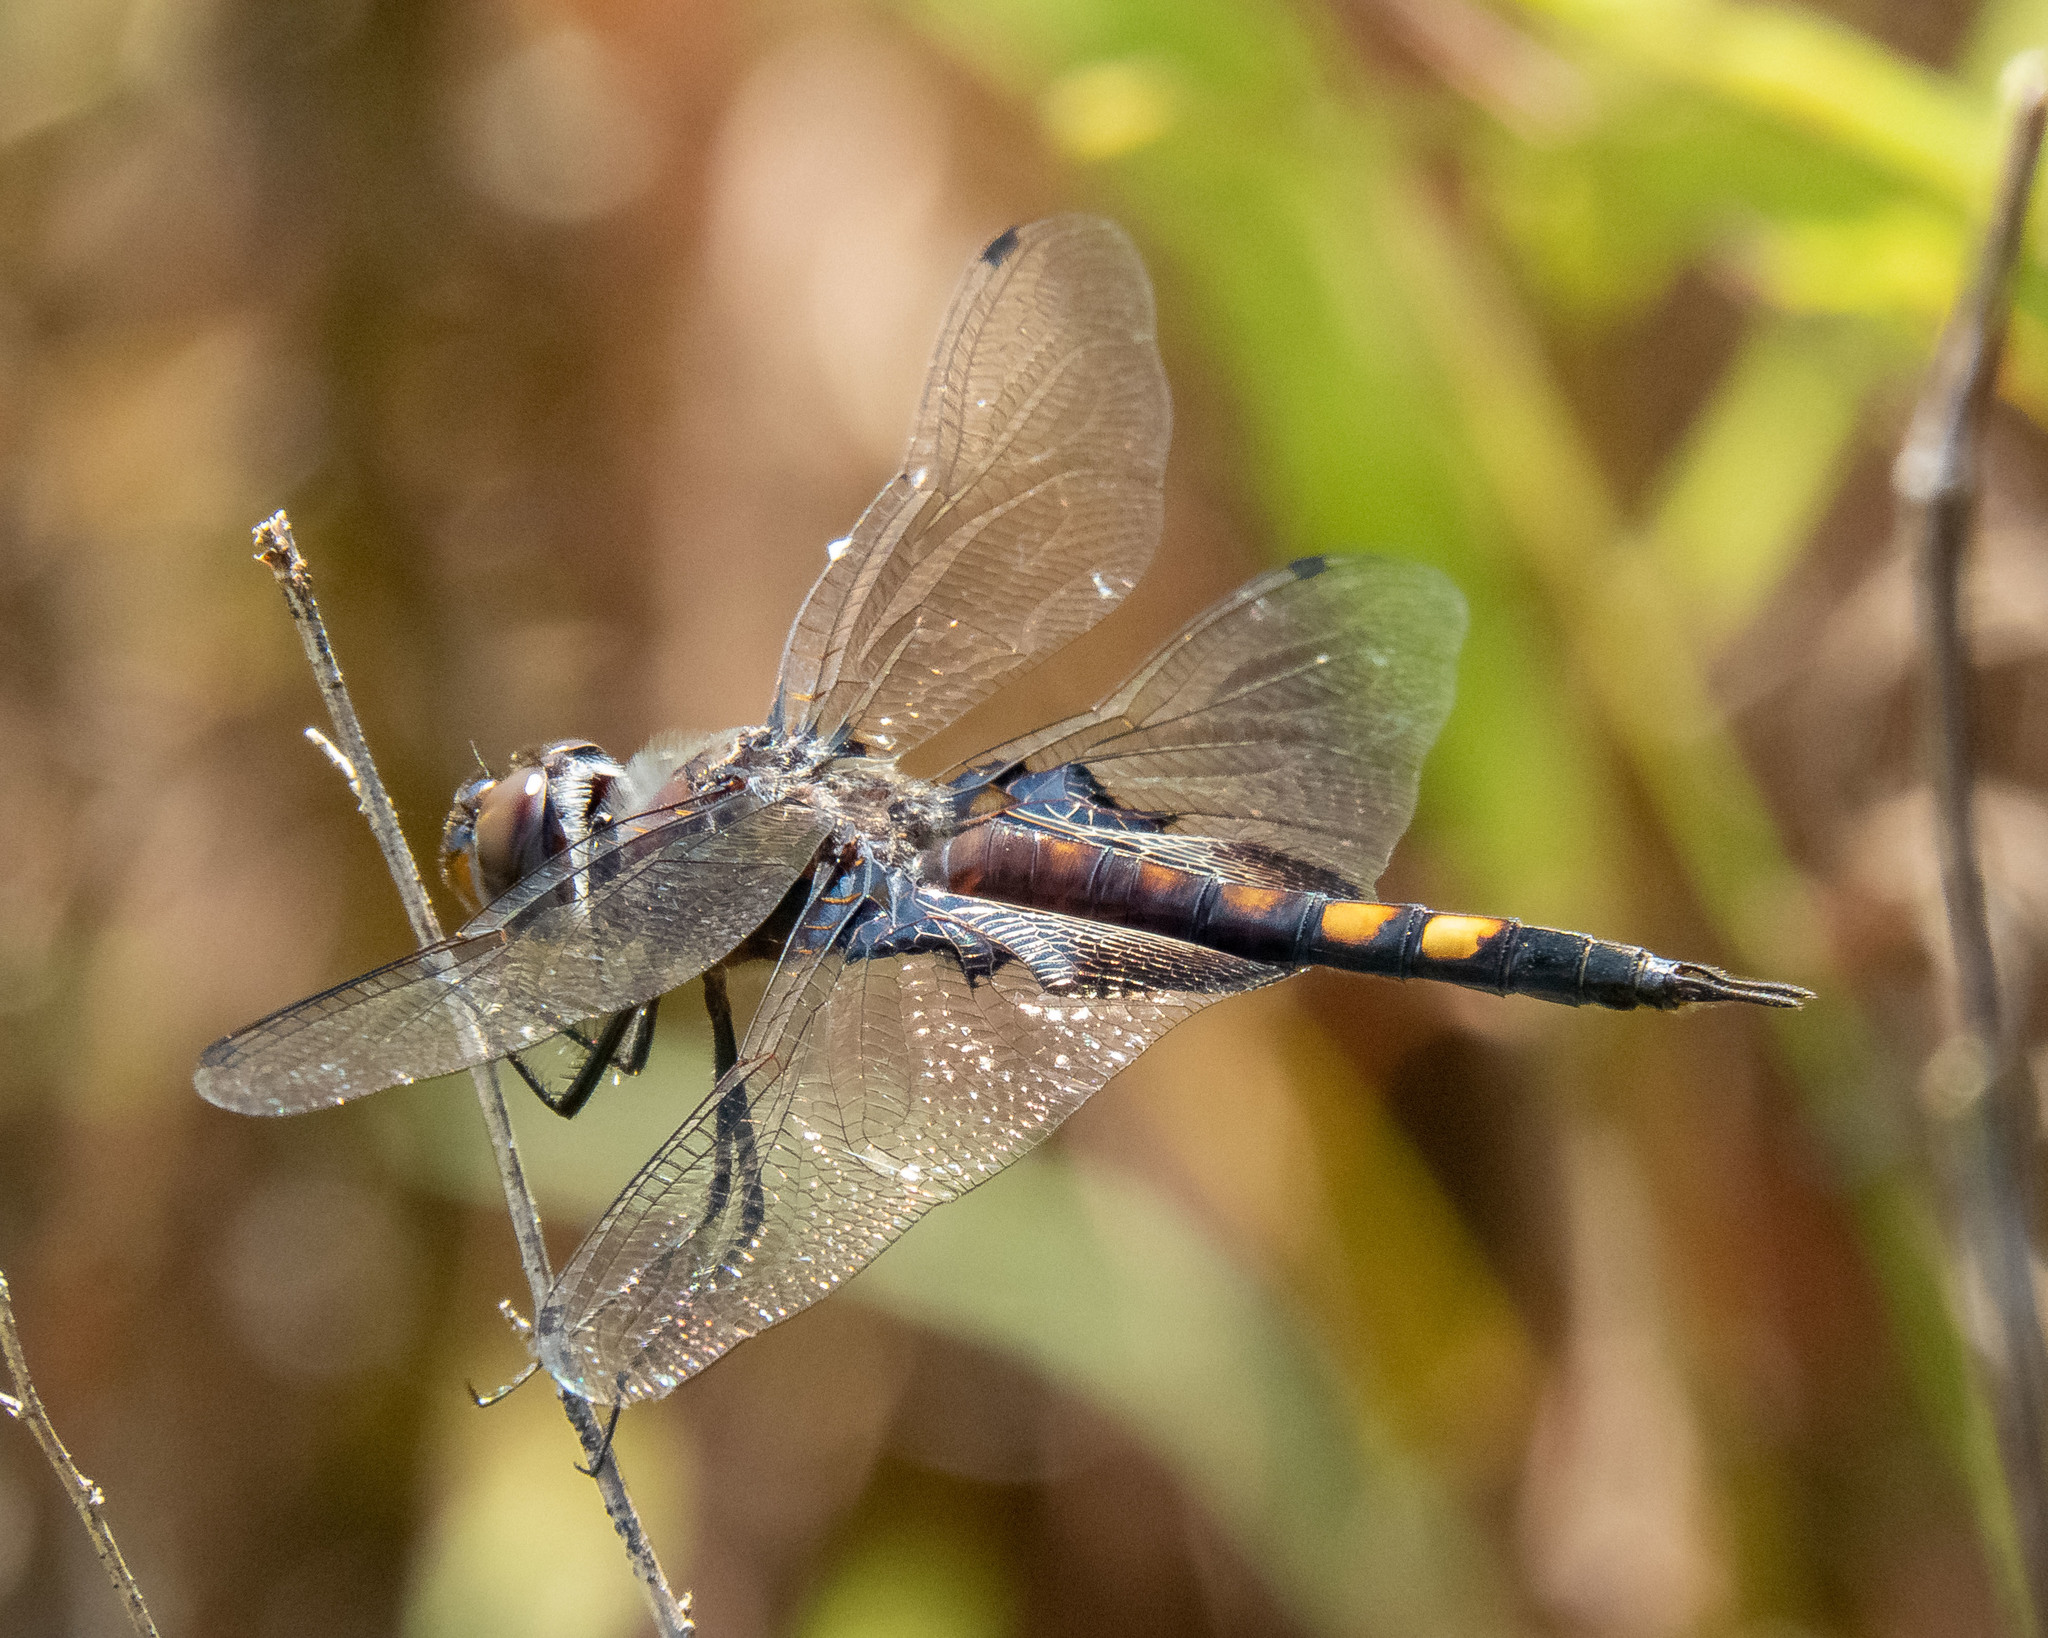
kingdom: Animalia
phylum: Arthropoda
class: Insecta
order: Odonata
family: Libellulidae
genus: Tramea
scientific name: Tramea lacerata
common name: Black saddlebags
